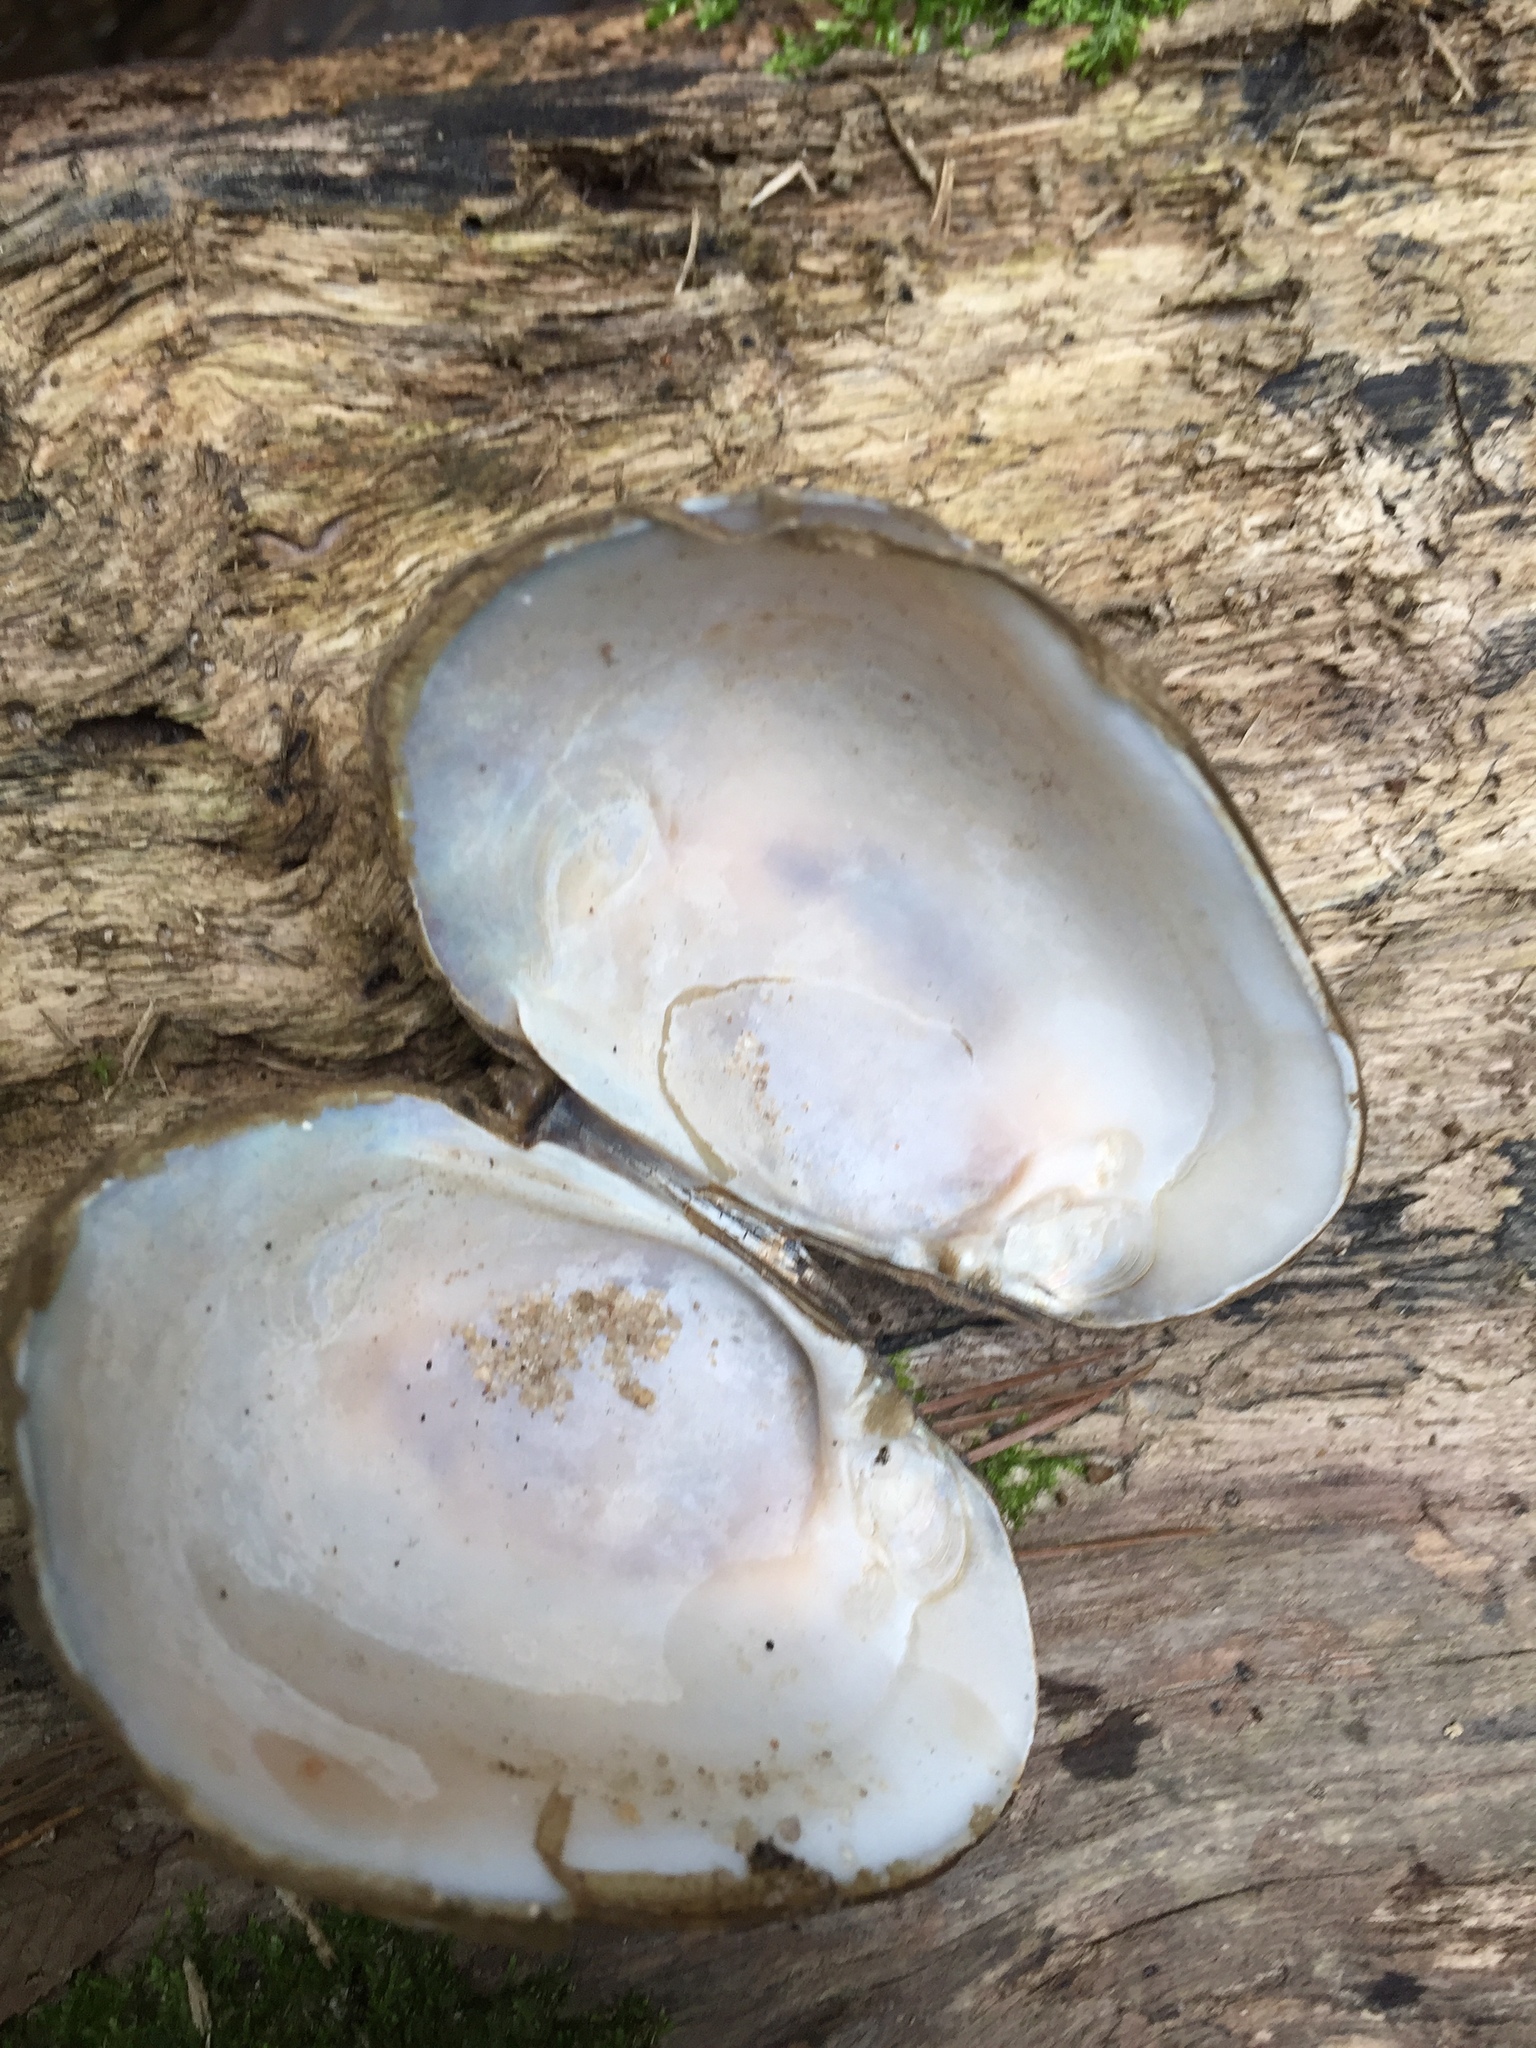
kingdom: Animalia
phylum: Mollusca
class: Bivalvia
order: Unionida
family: Unionidae
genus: Lampsilis
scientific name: Lampsilis straminea
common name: Rough fatmucket
